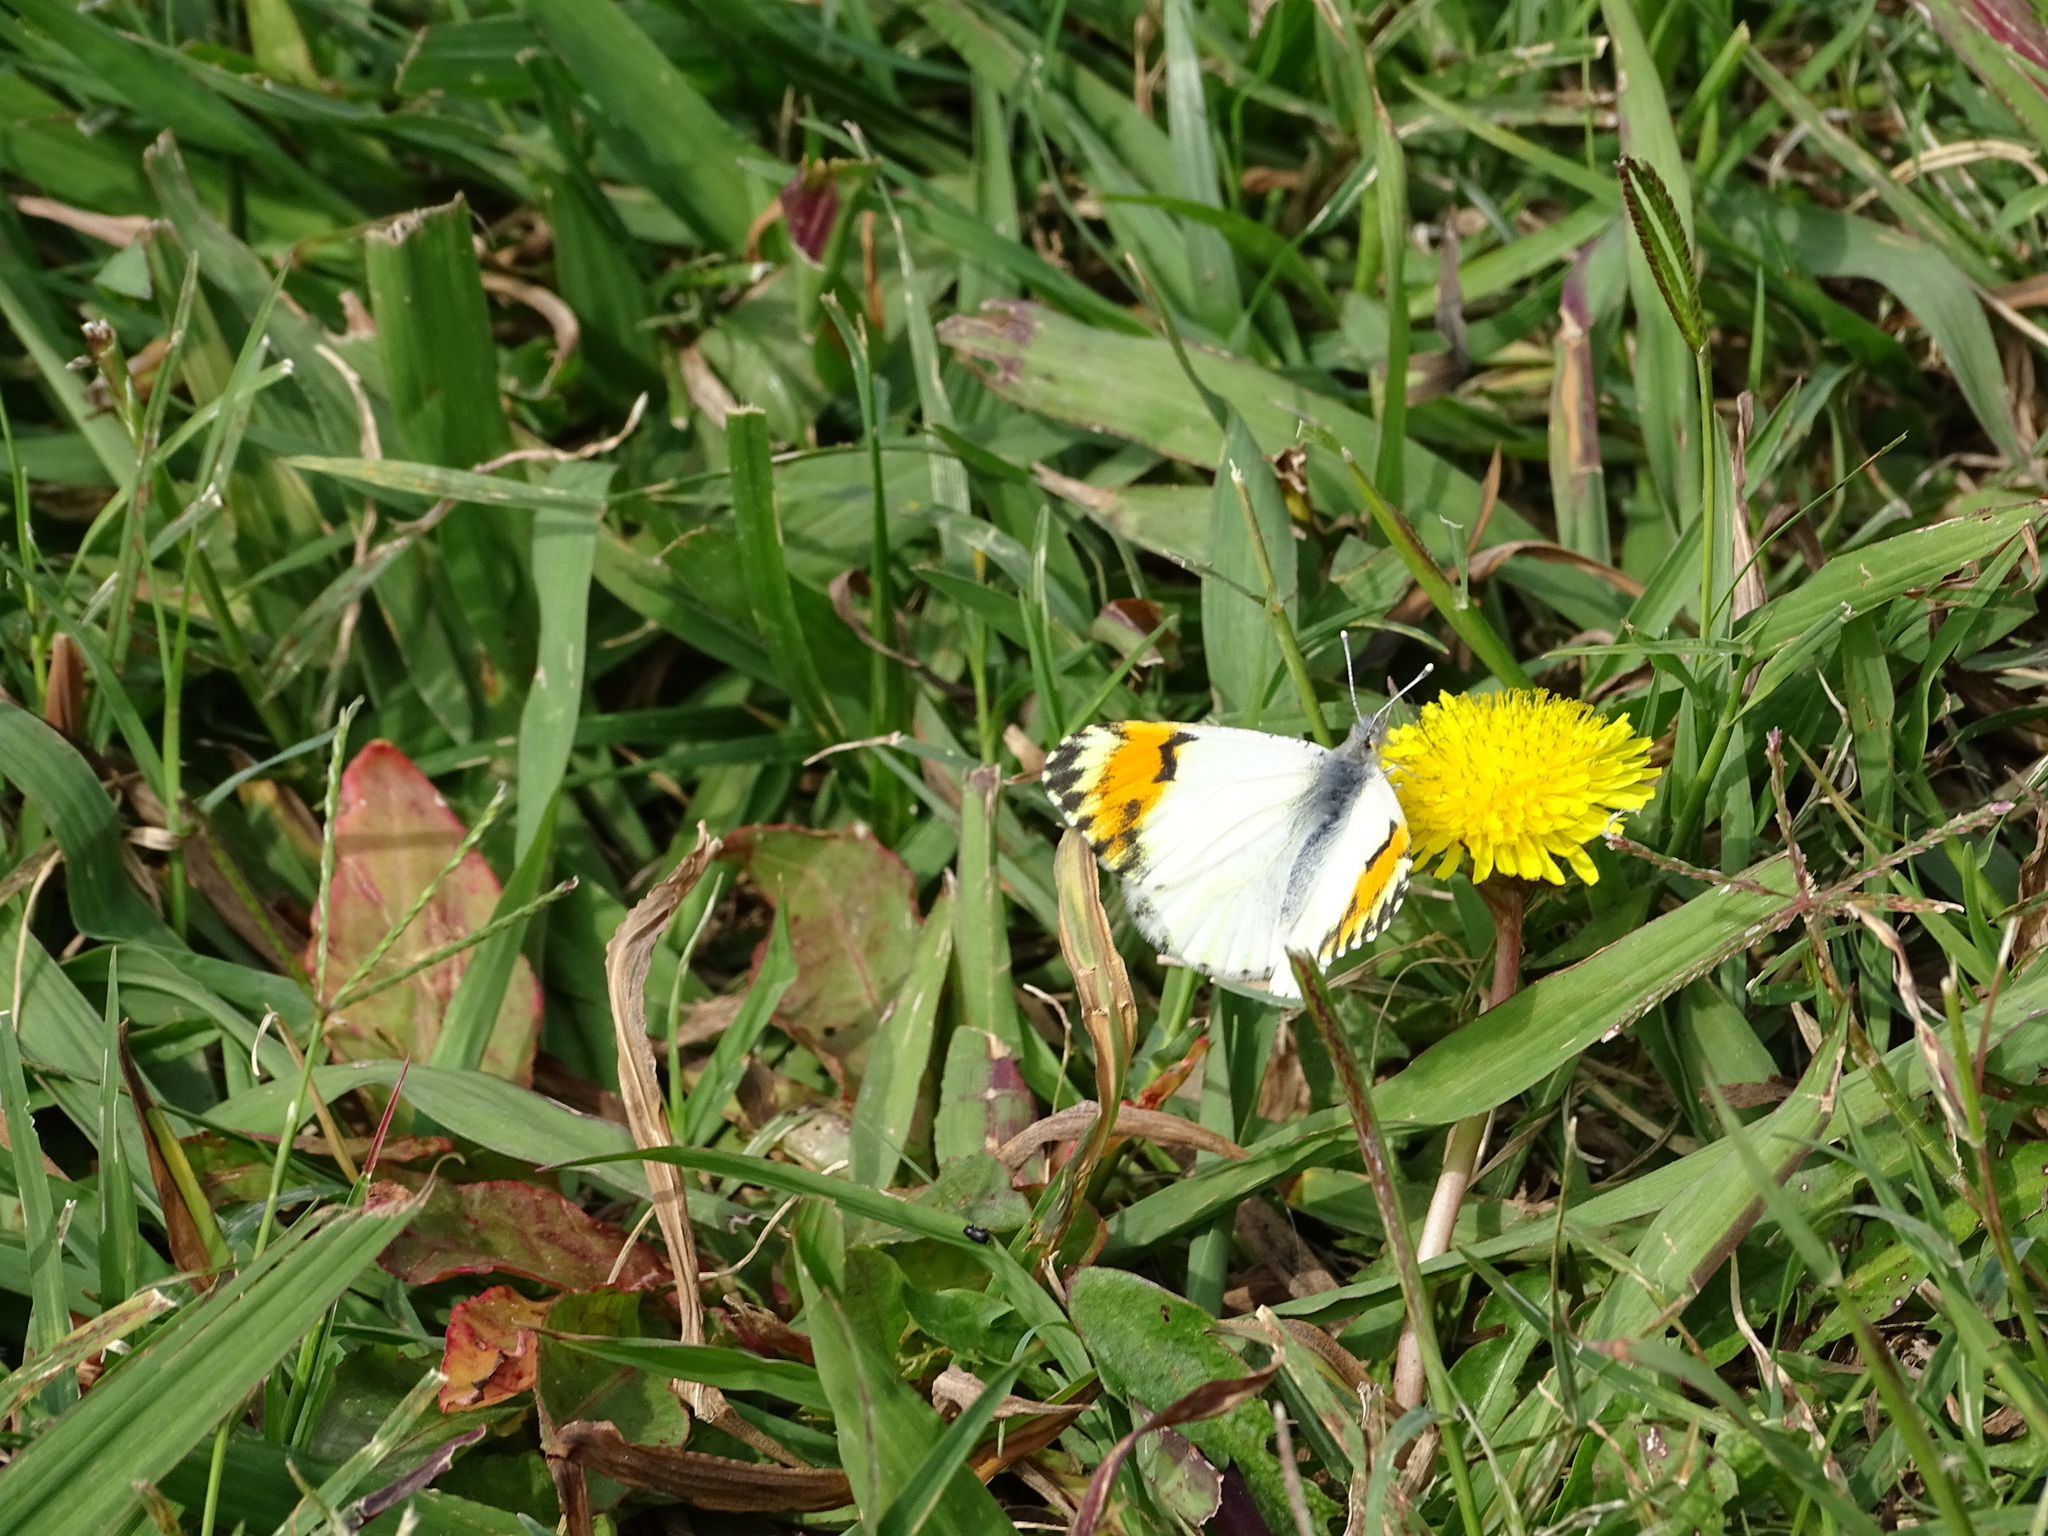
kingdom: Animalia
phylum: Arthropoda
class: Insecta
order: Lepidoptera
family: Pieridae
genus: Anthocharis
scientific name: Anthocharis sara
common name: Sara's orangetip
